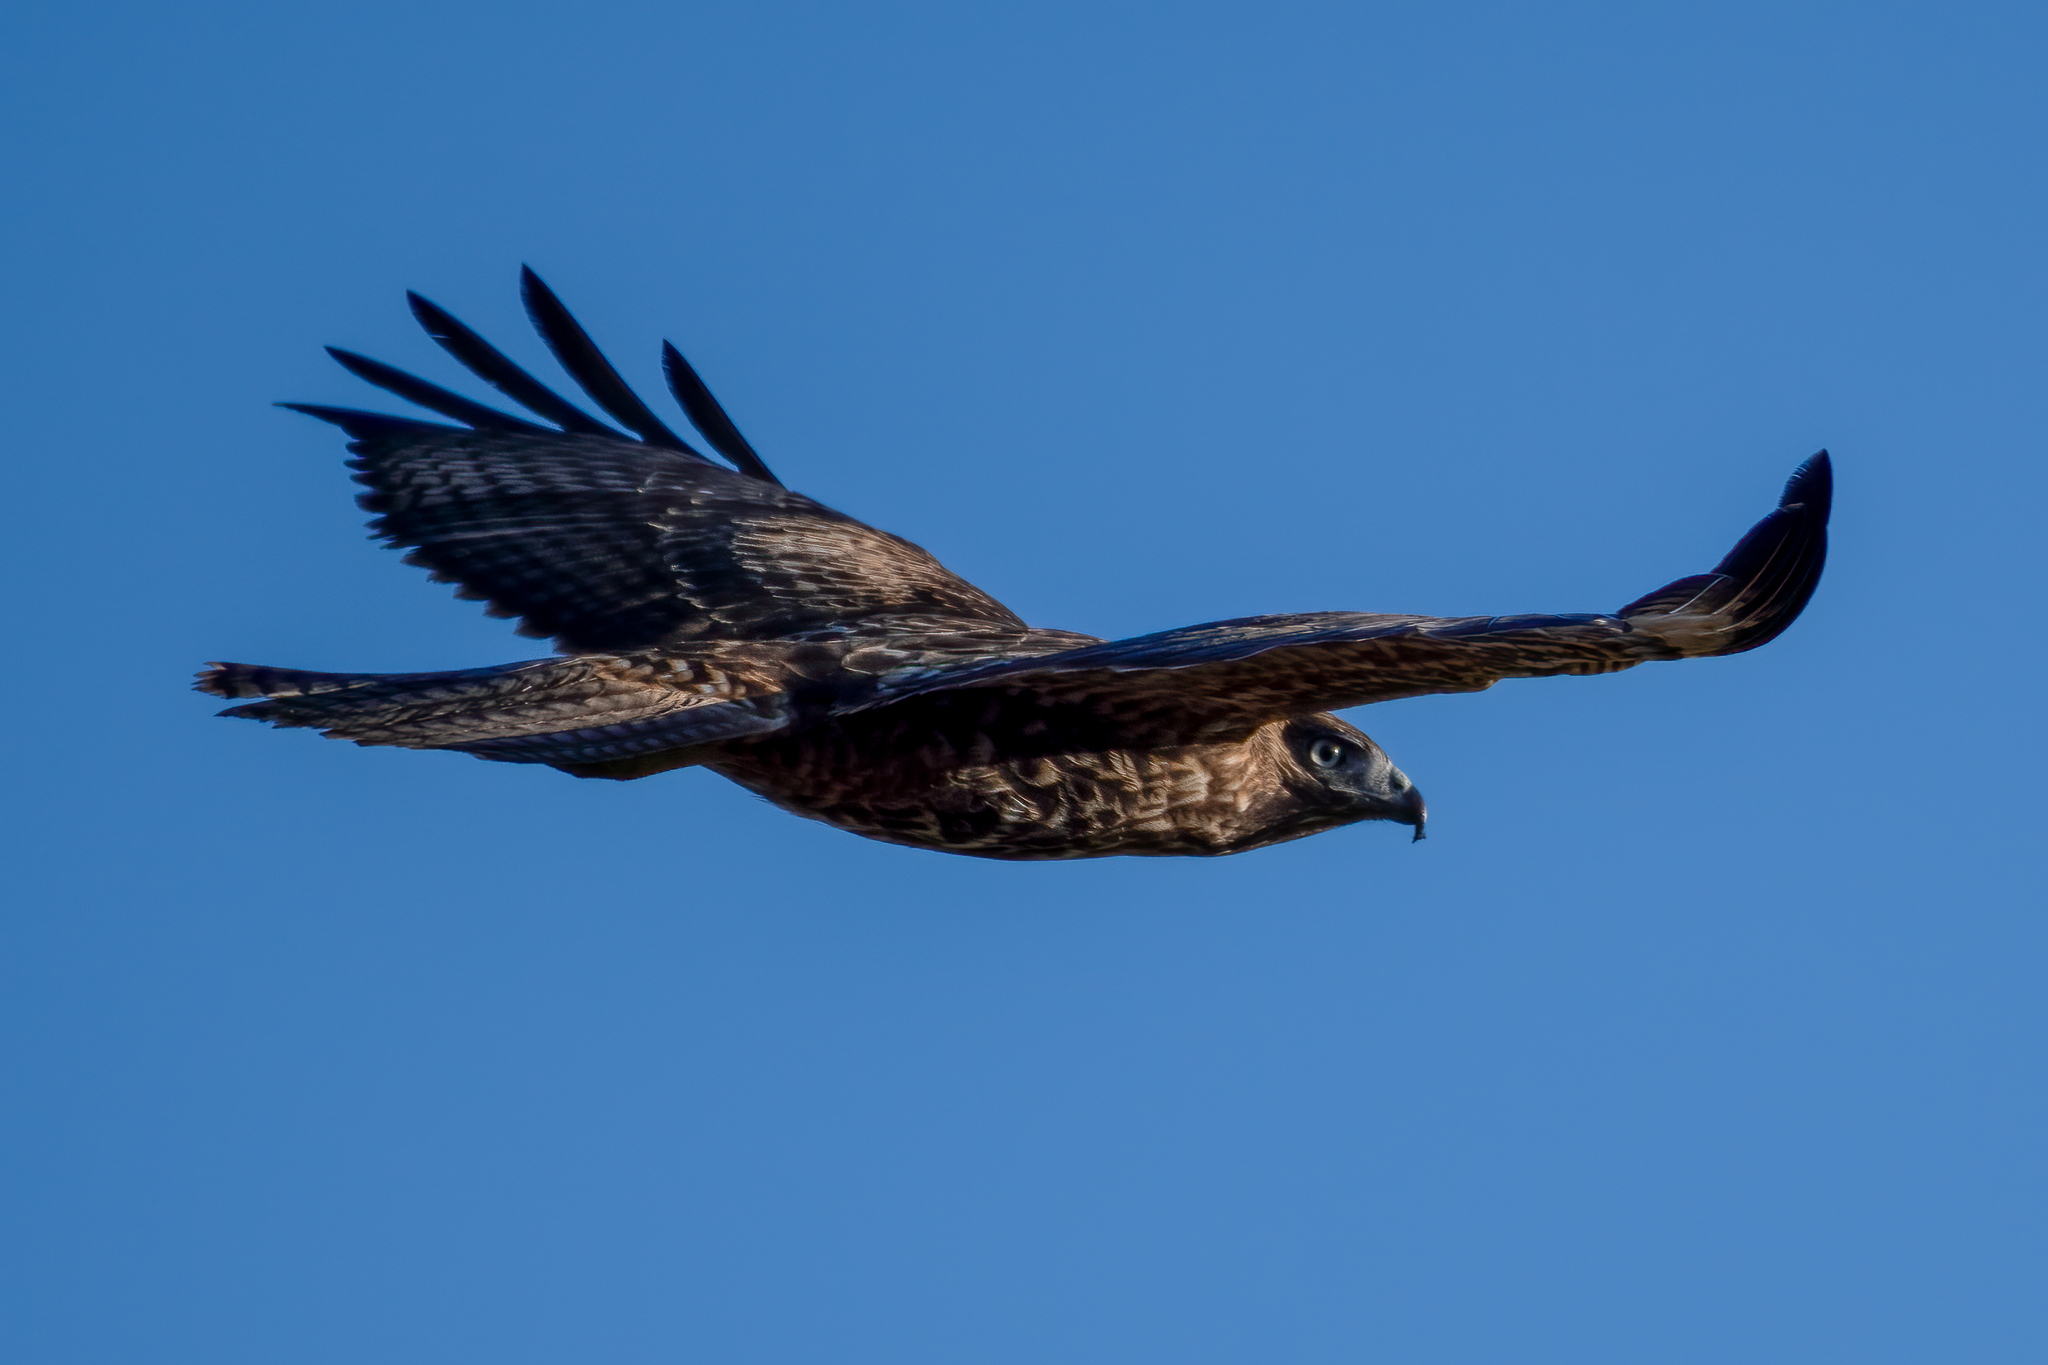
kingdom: Animalia
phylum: Chordata
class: Aves
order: Accipitriformes
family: Accipitridae
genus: Buteo
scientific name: Buteo jamaicensis
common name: Red-tailed hawk
